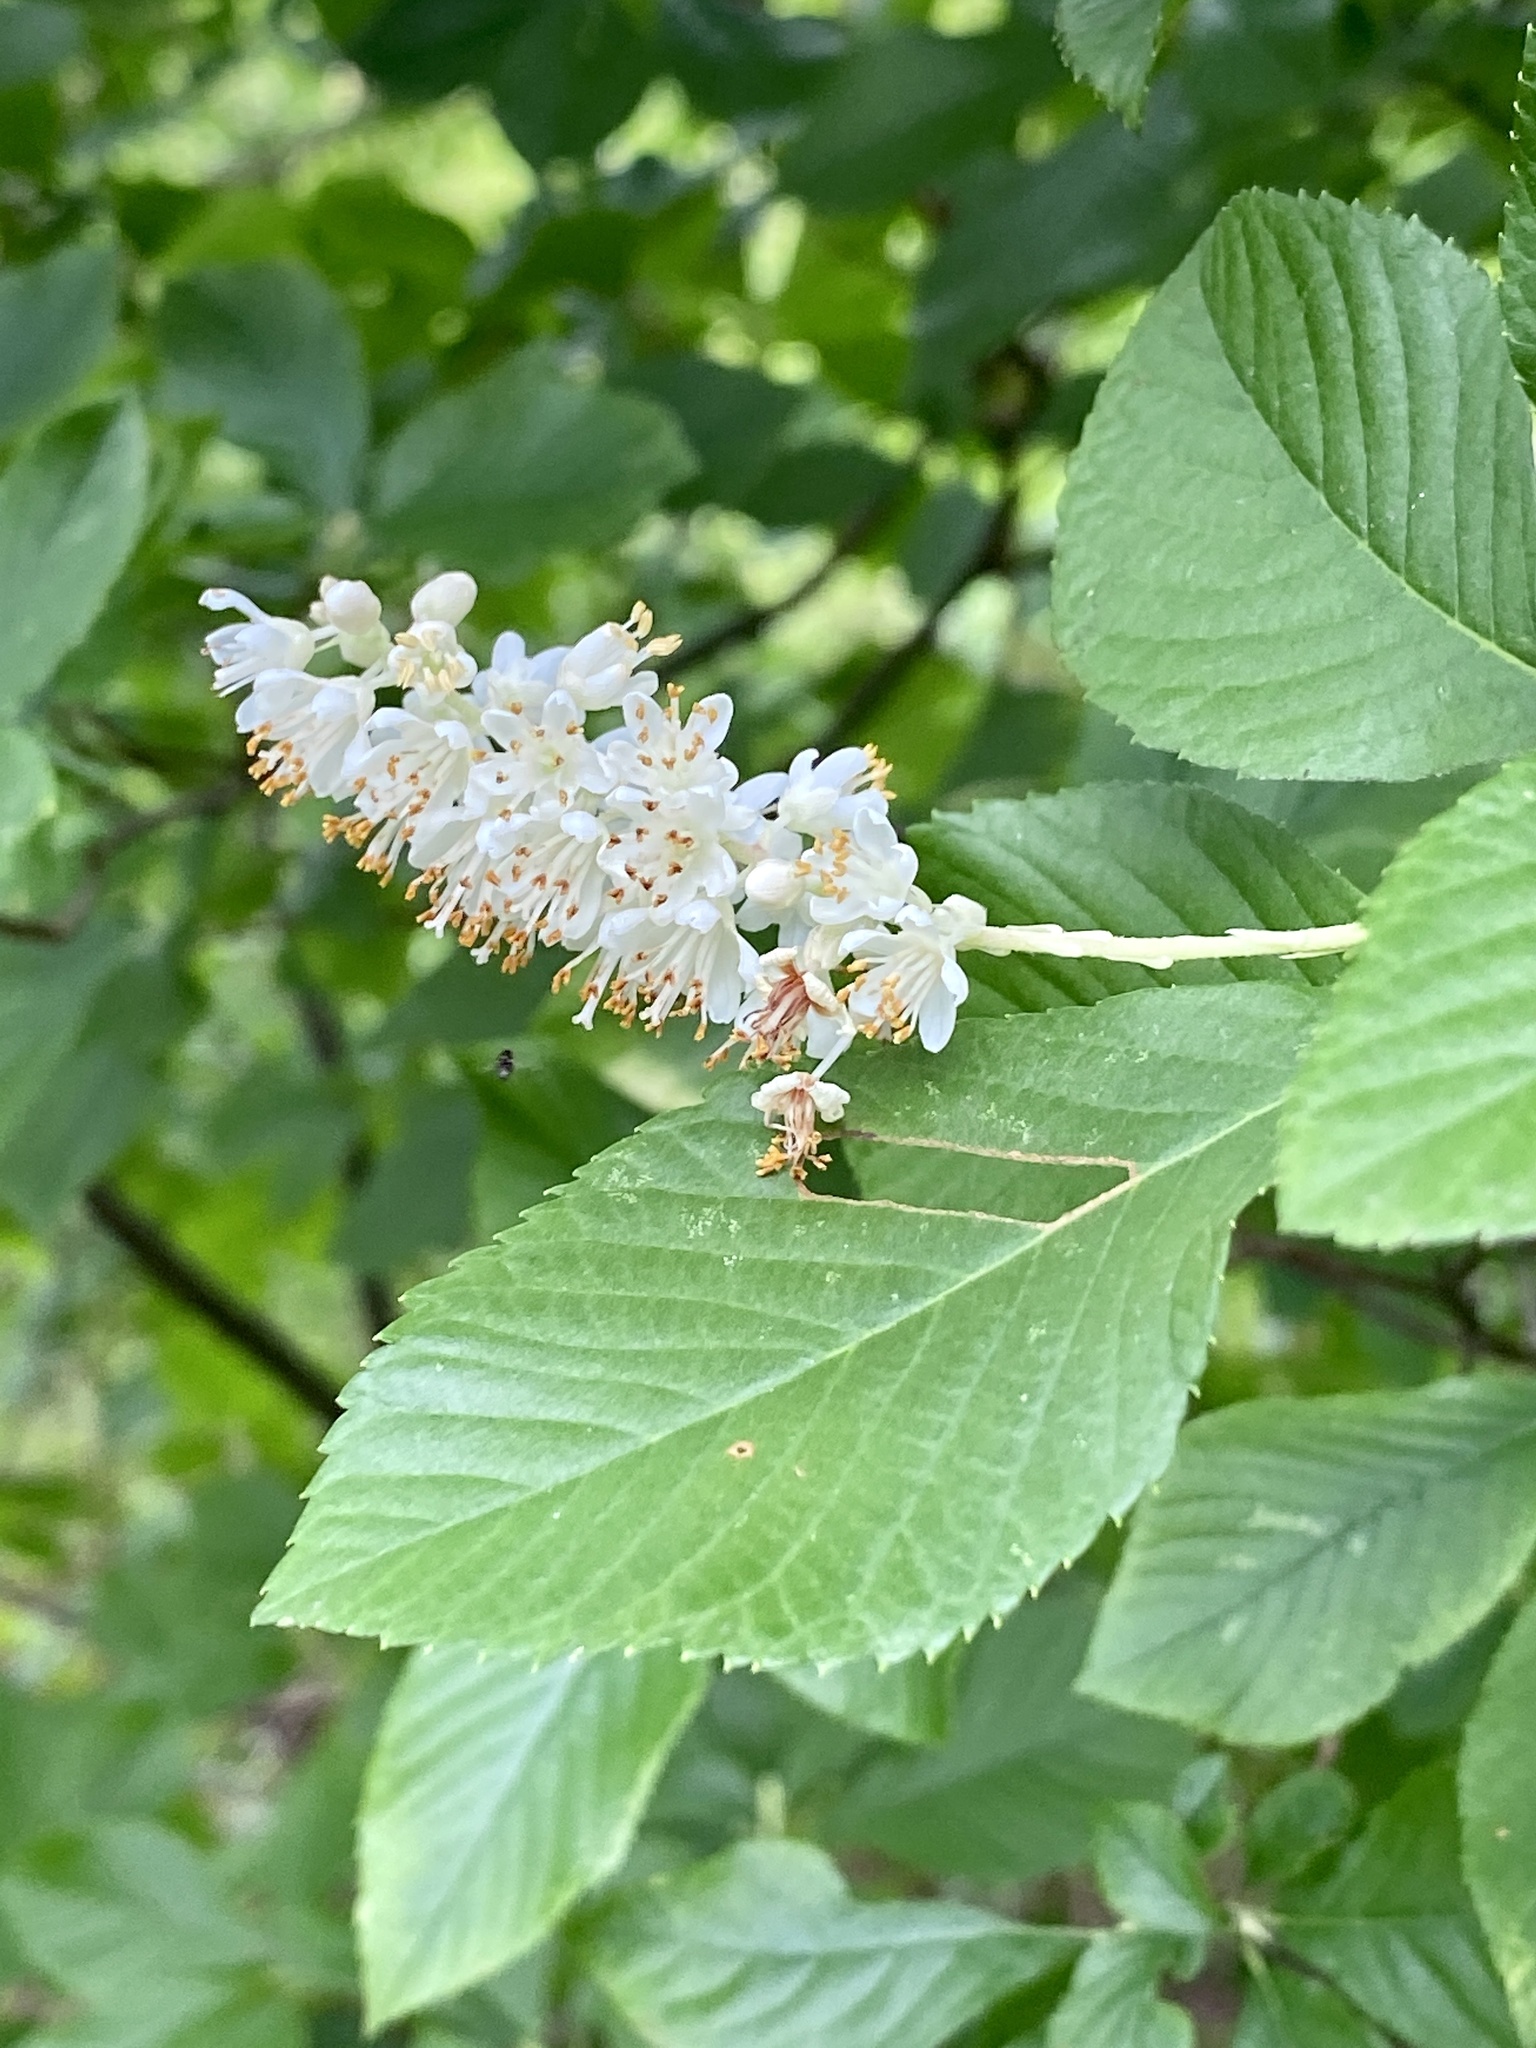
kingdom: Plantae
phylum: Tracheophyta
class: Magnoliopsida
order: Ericales
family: Clethraceae
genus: Clethra
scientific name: Clethra alnifolia
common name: Sweet pepperbush
